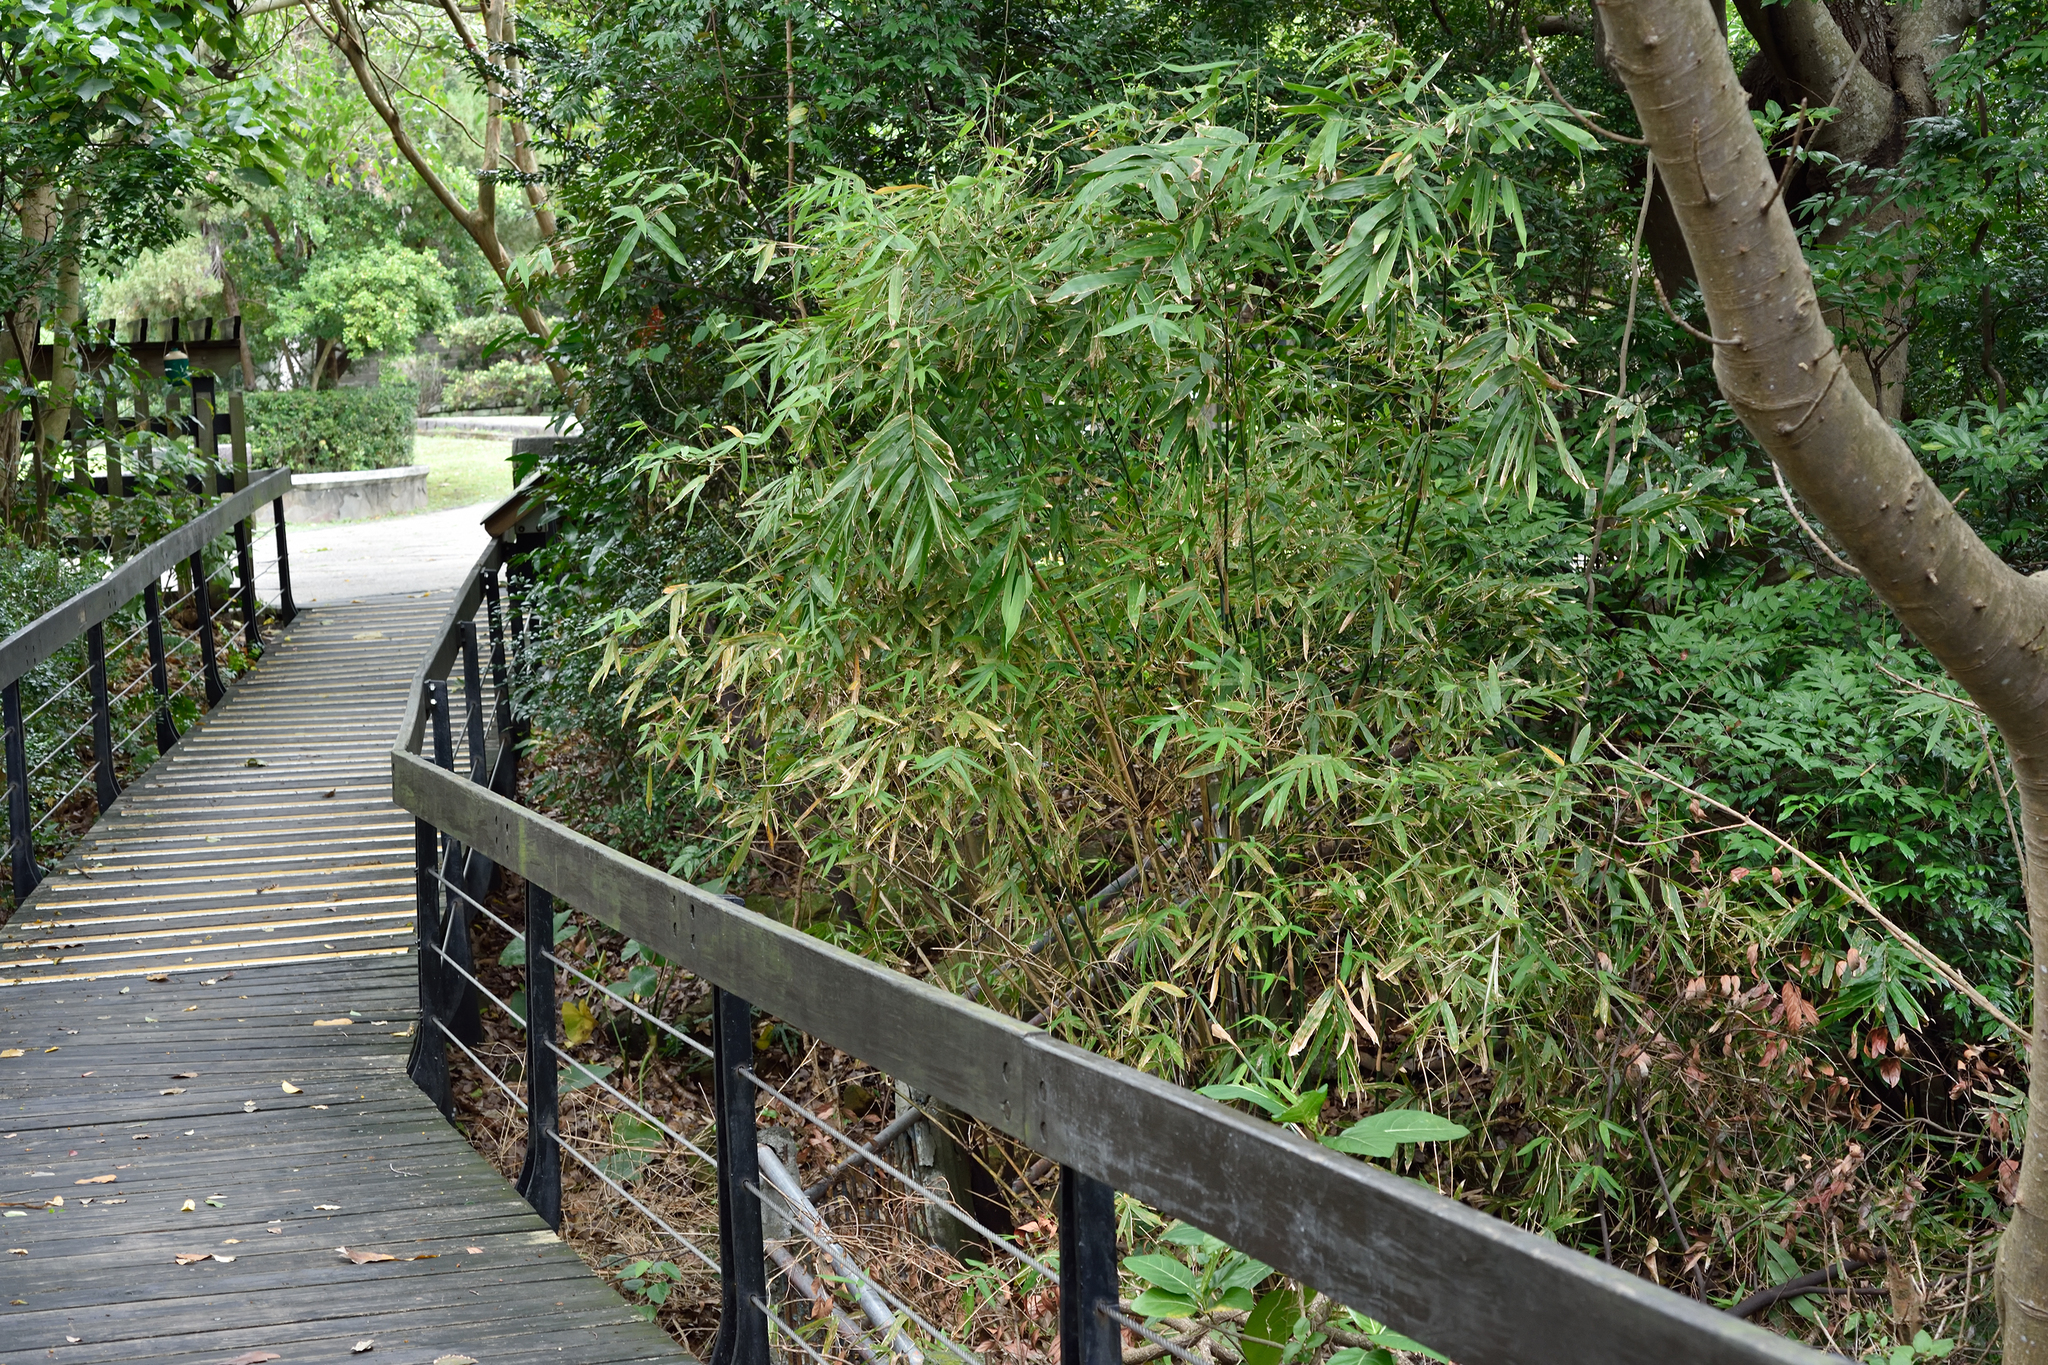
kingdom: Plantae
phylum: Tracheophyta
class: Liliopsida
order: Poales
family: Poaceae
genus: Bambusa
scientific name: Bambusa pachinensis
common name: Pachi bamboo
